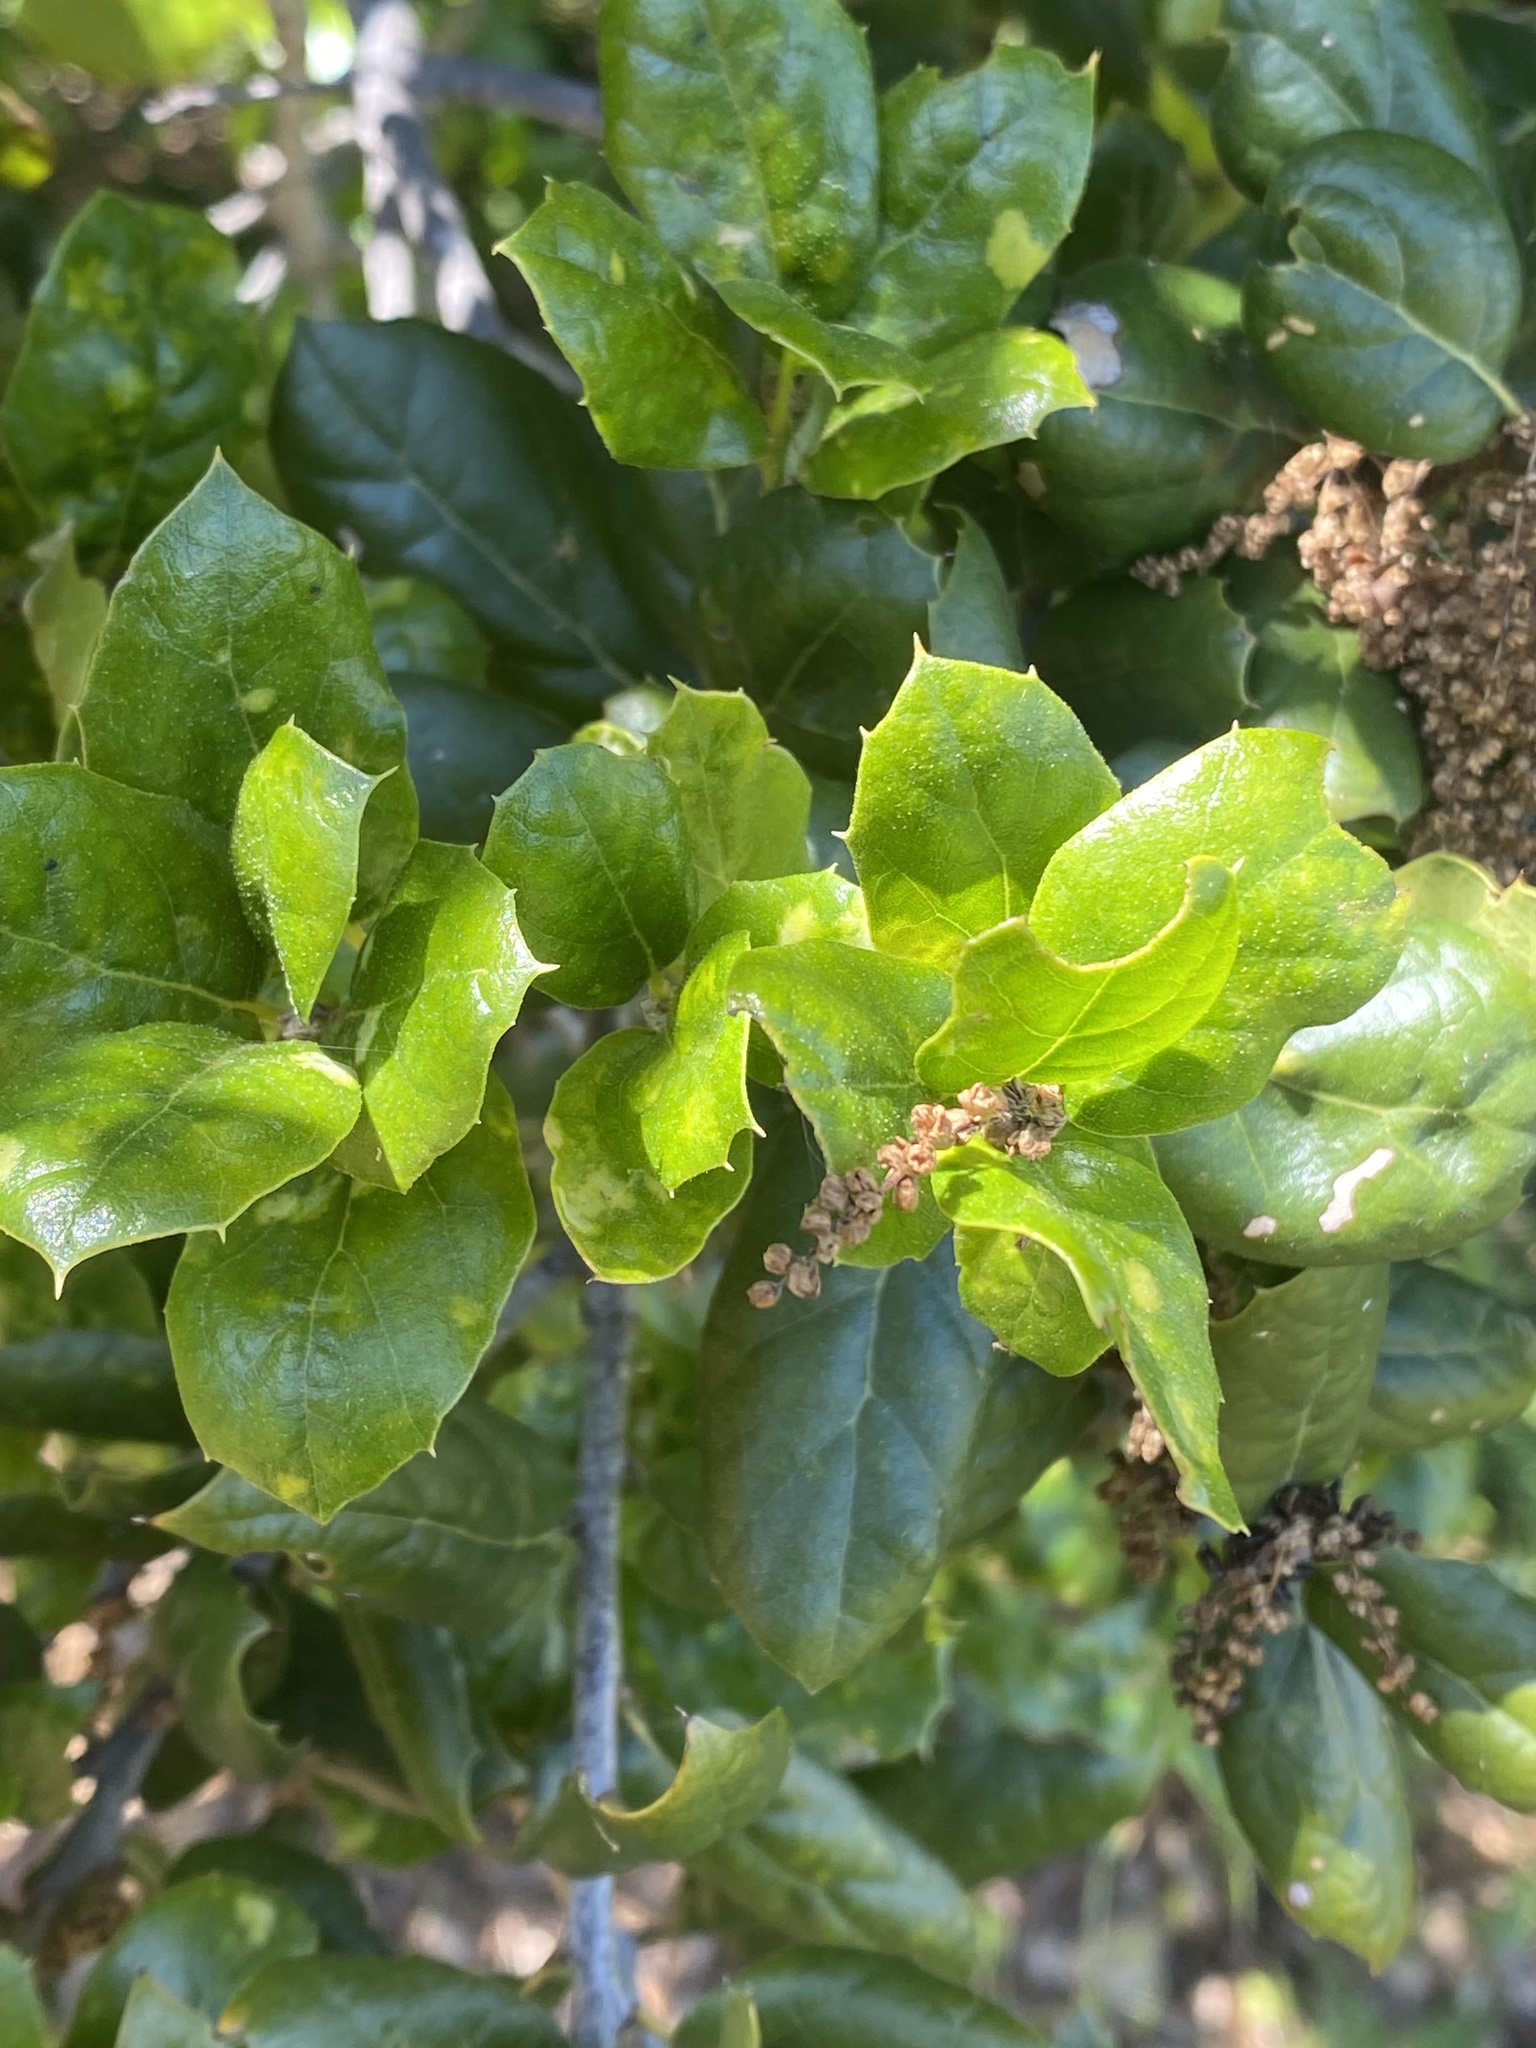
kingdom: Plantae
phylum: Tracheophyta
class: Magnoliopsida
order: Fagales
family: Fagaceae
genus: Quercus
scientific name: Quercus agrifolia
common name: California live oak
